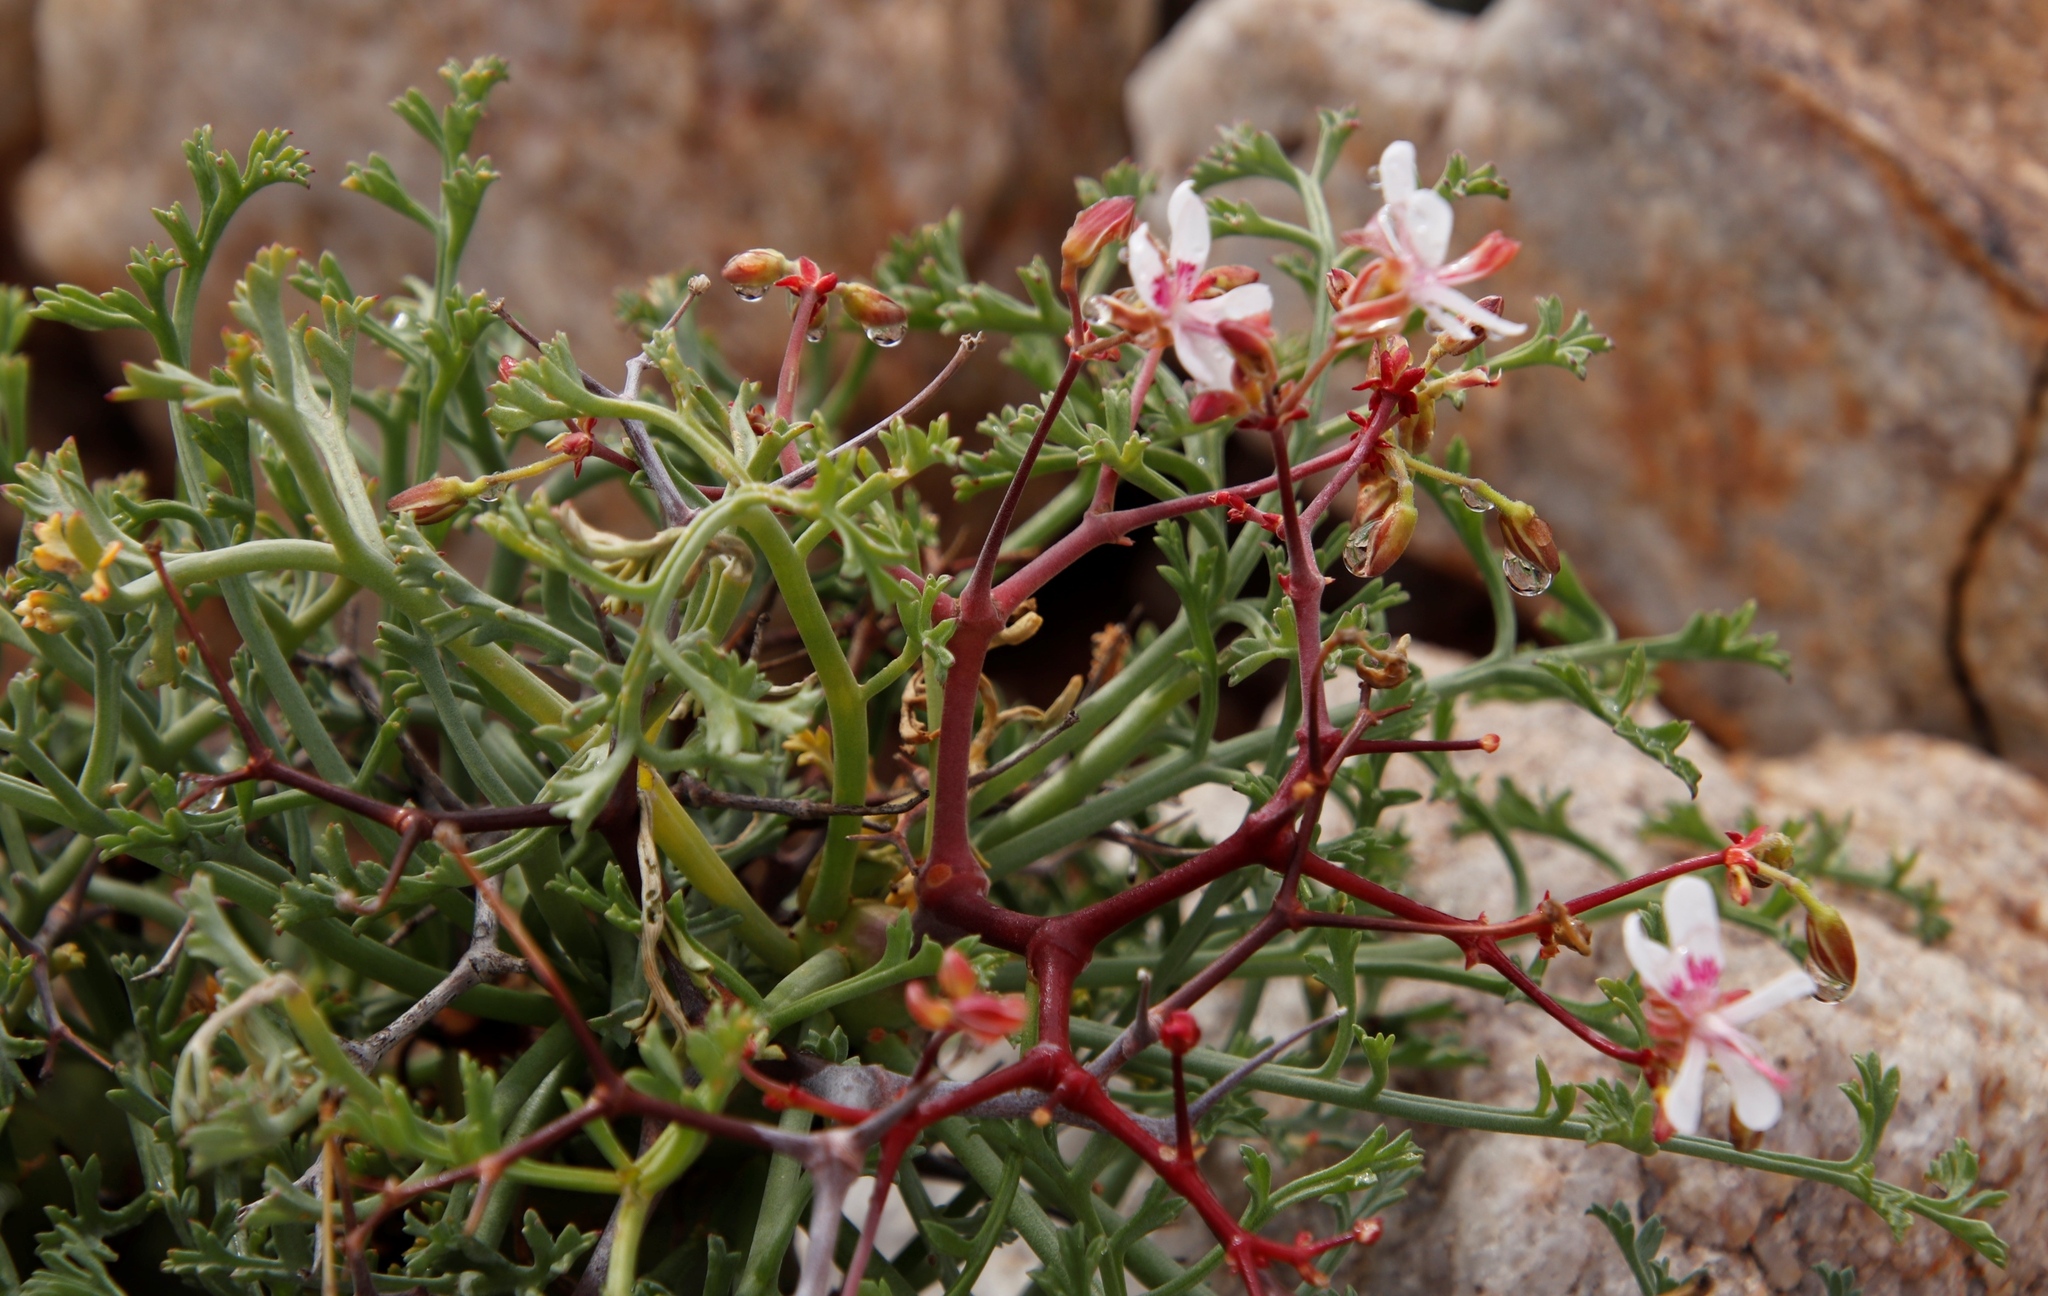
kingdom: Plantae
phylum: Tracheophyta
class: Magnoliopsida
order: Geraniales
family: Geraniaceae
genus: Pelargonium
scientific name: Pelargonium crithmifolium
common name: Samphire-leaf pelargonium
